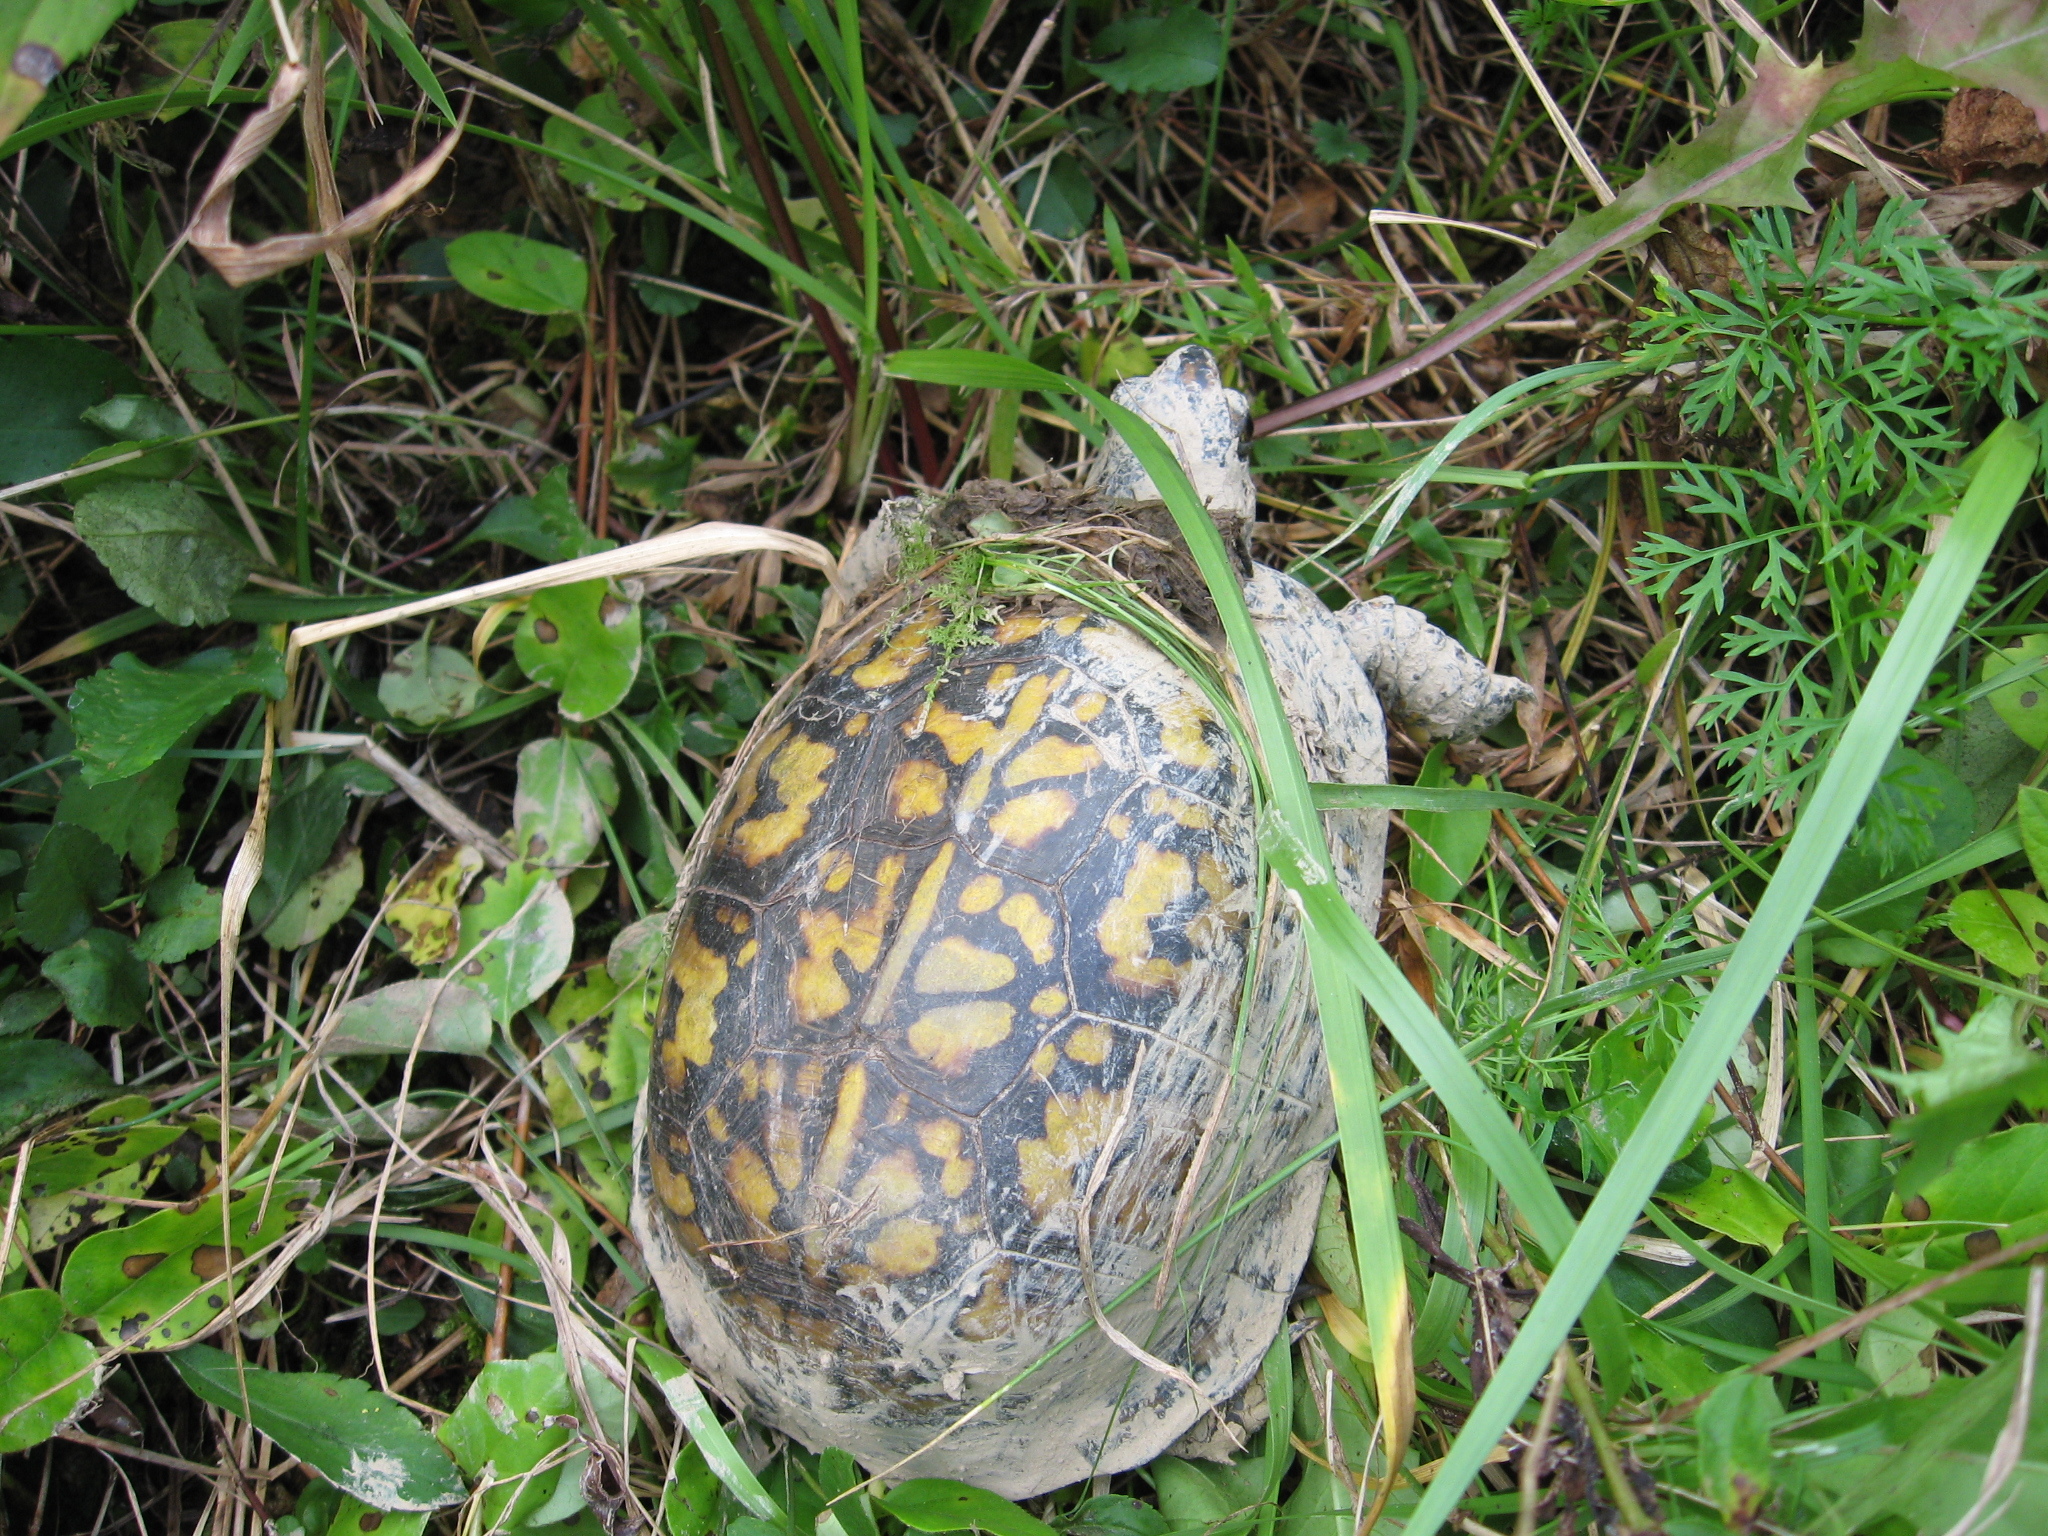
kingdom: Animalia
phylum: Chordata
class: Testudines
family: Emydidae
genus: Terrapene
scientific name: Terrapene carolina
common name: Common box turtle
